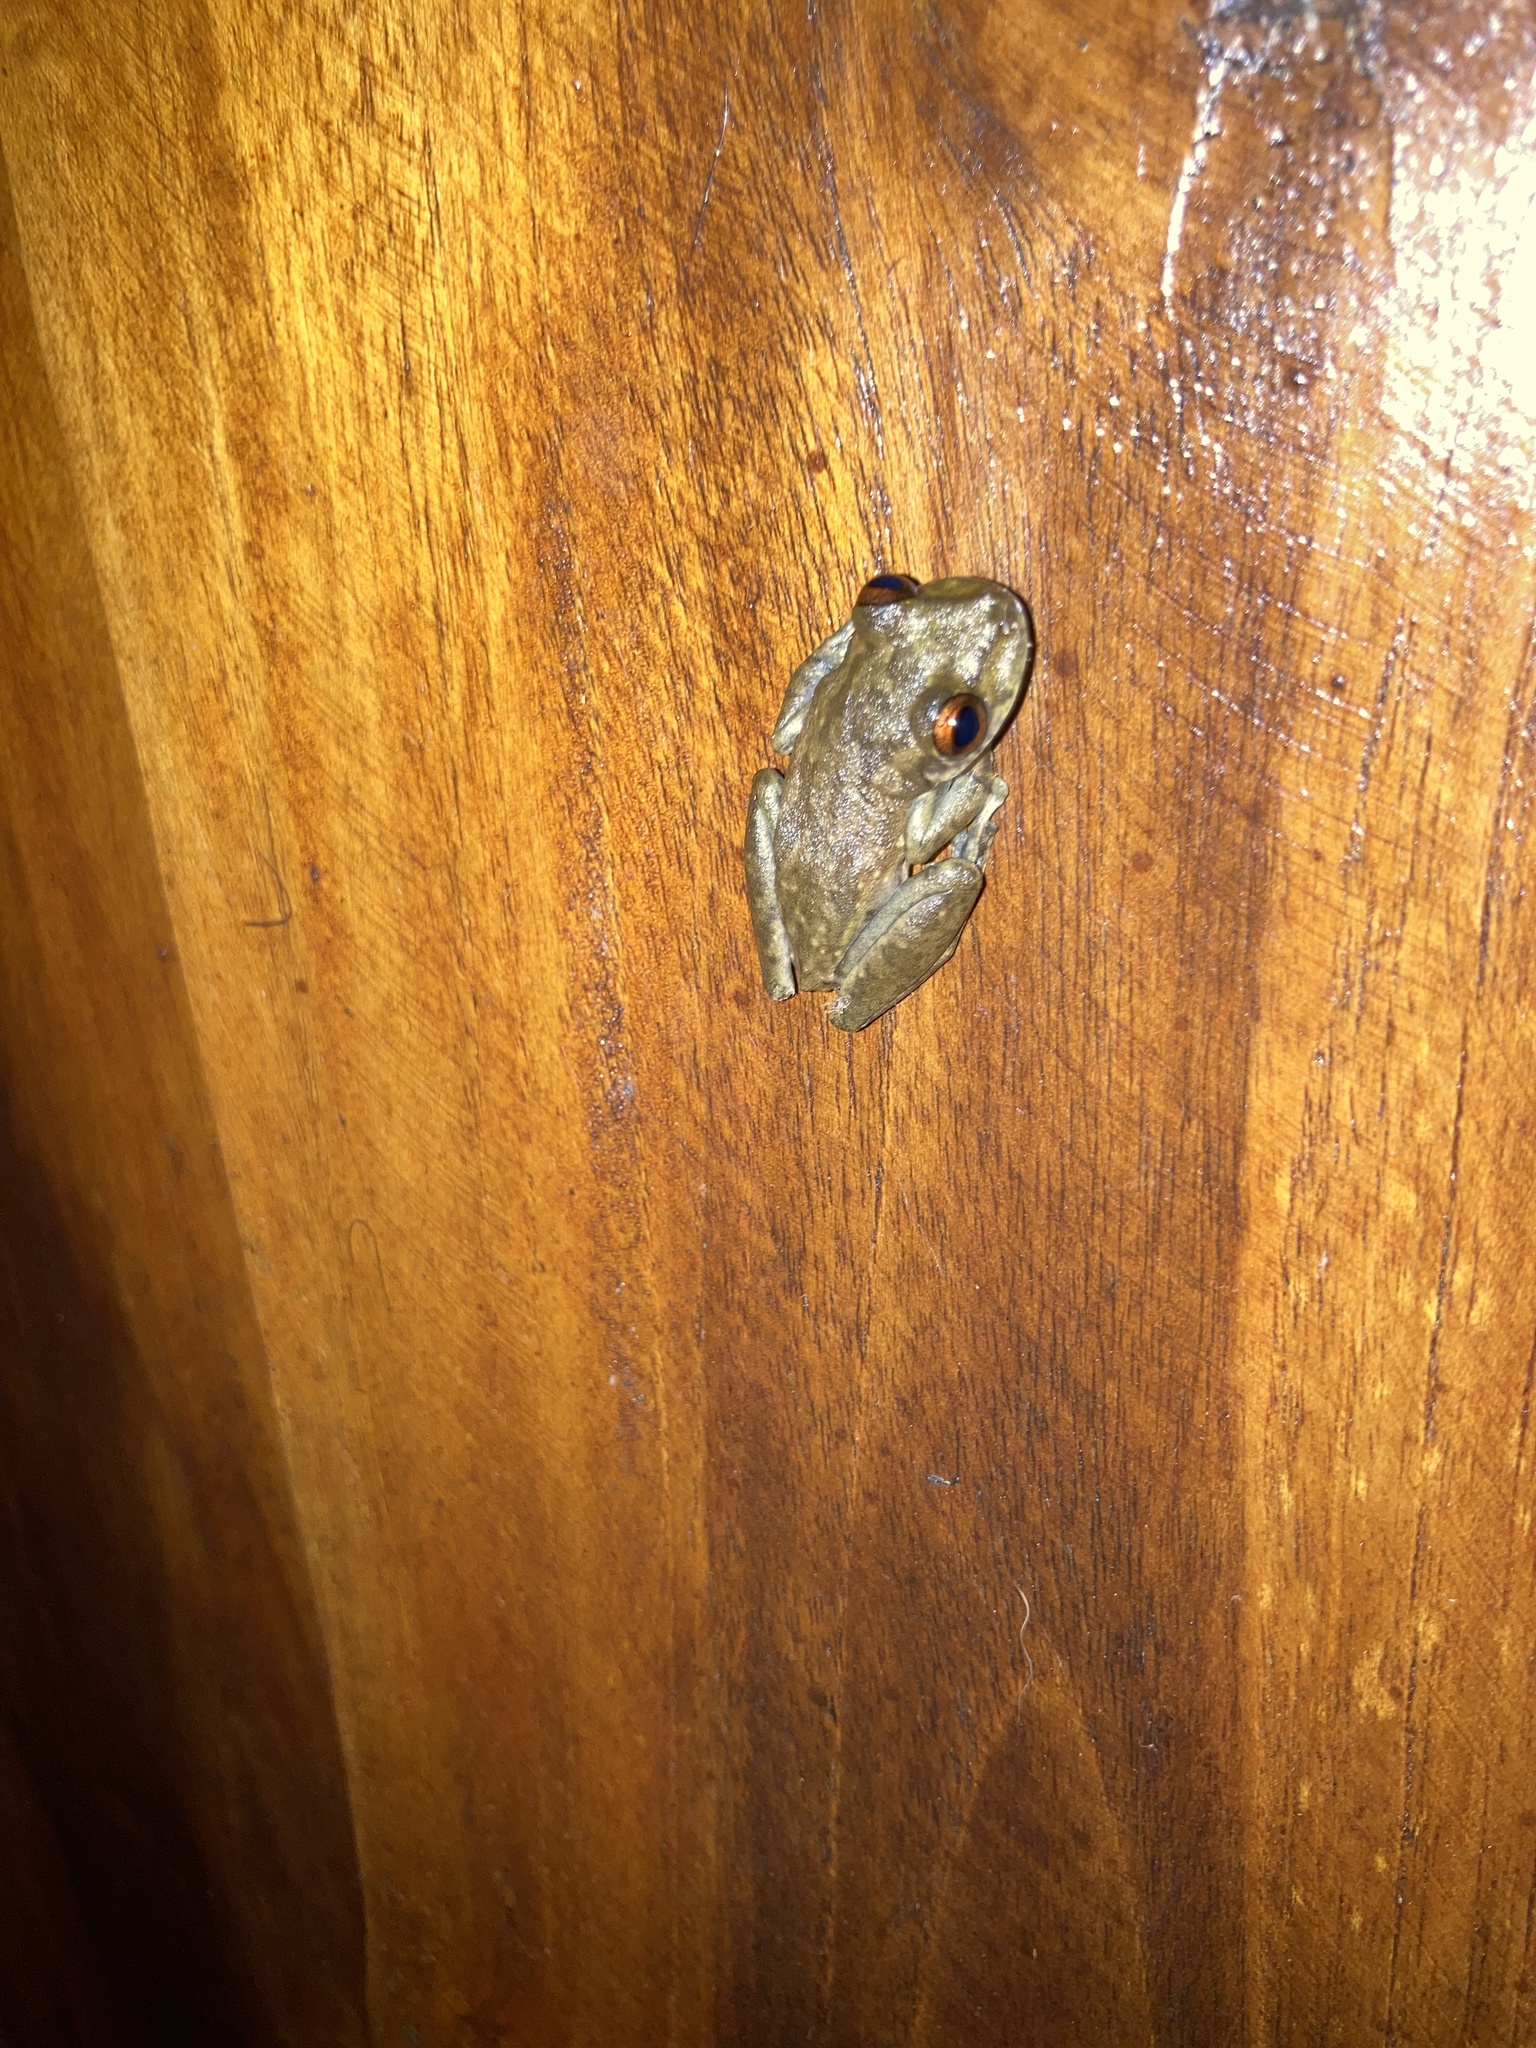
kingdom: Animalia
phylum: Chordata
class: Amphibia
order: Anura
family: Hylidae
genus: Scinax
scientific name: Scinax elaeochroa
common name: Sipurio snouted treefrog
